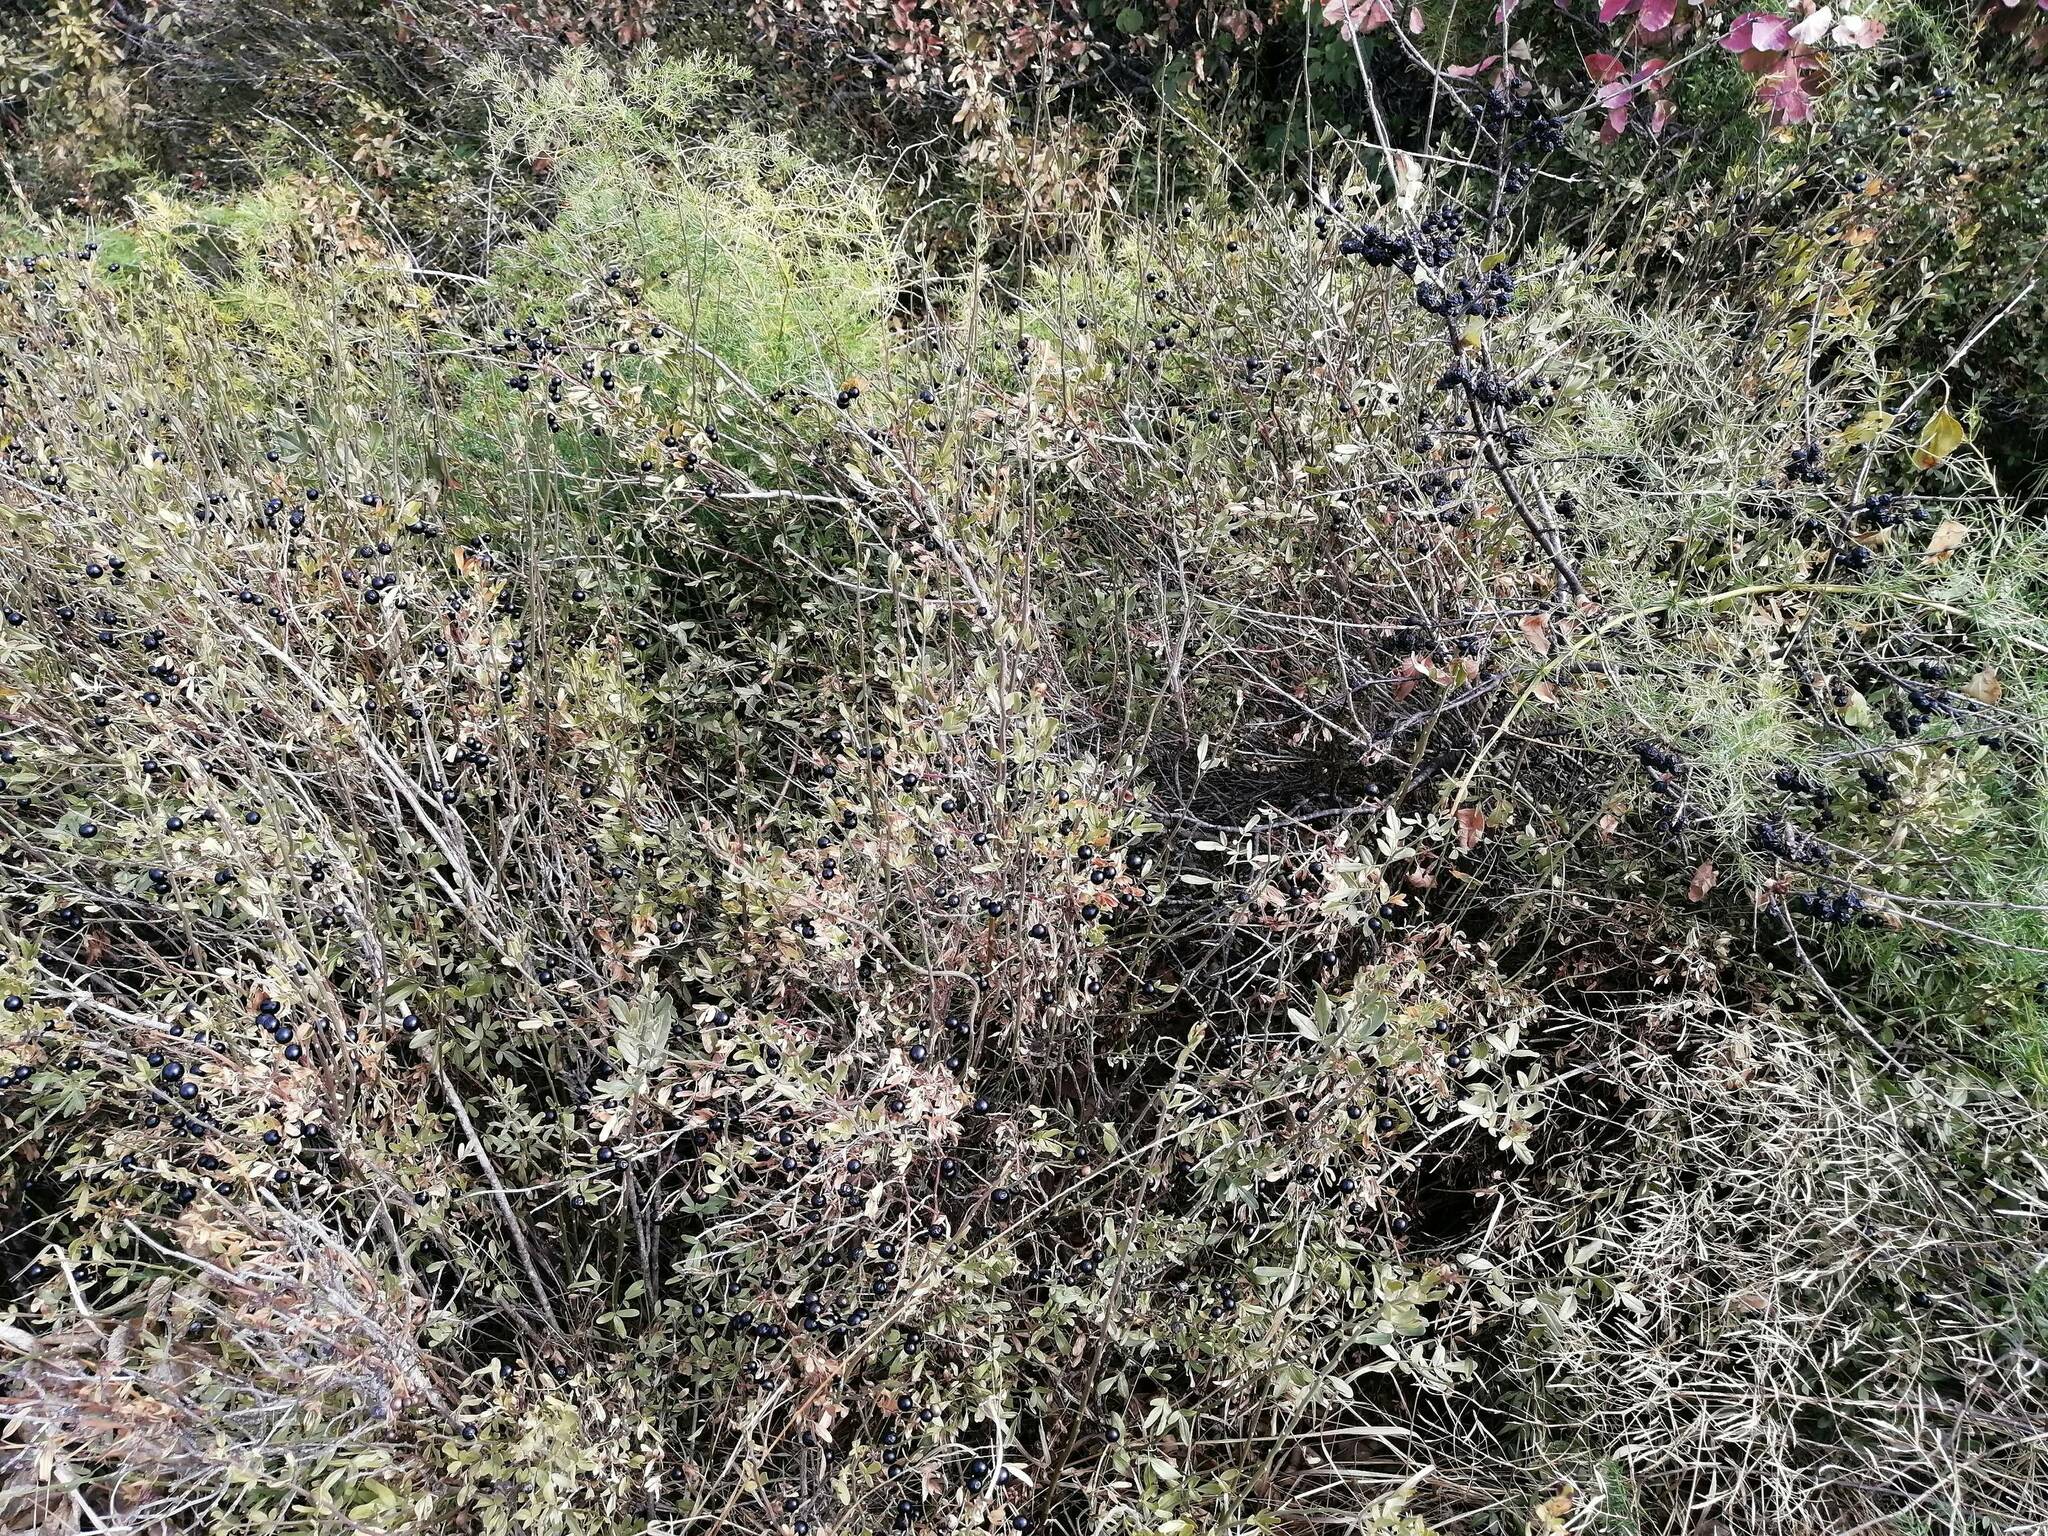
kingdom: Plantae
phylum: Tracheophyta
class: Magnoliopsida
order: Lamiales
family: Oleaceae
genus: Chrysojasminum
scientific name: Chrysojasminum fruticans
